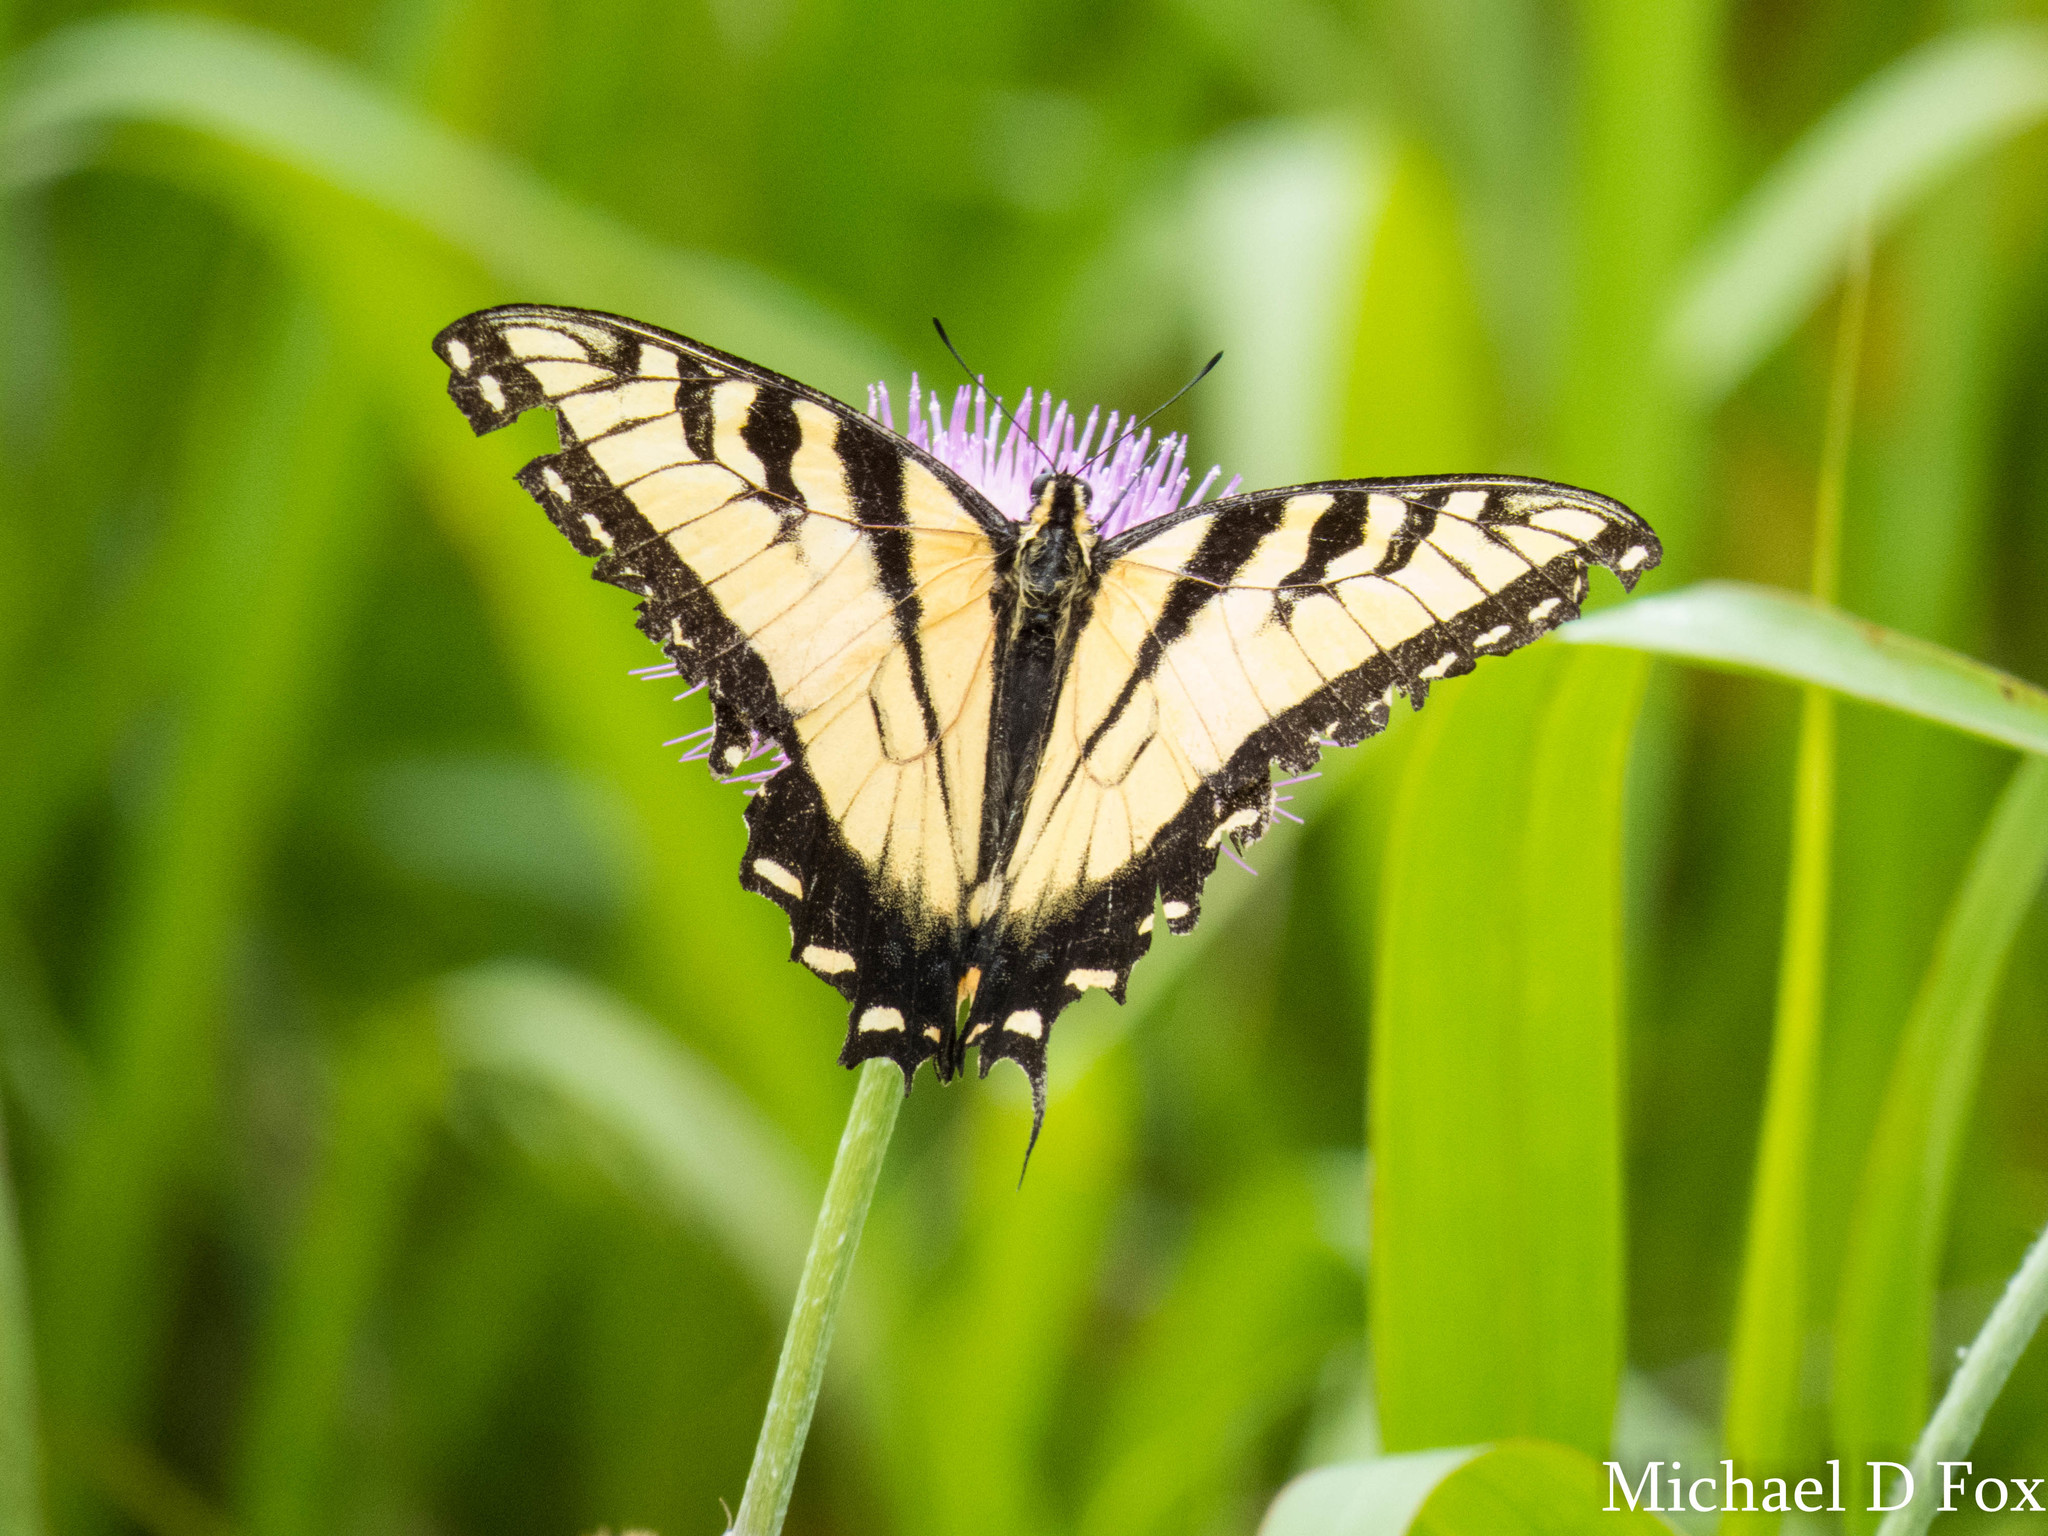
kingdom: Animalia
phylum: Arthropoda
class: Insecta
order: Lepidoptera
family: Papilionidae
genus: Papilio
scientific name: Papilio glaucus
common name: Tiger swallowtail
